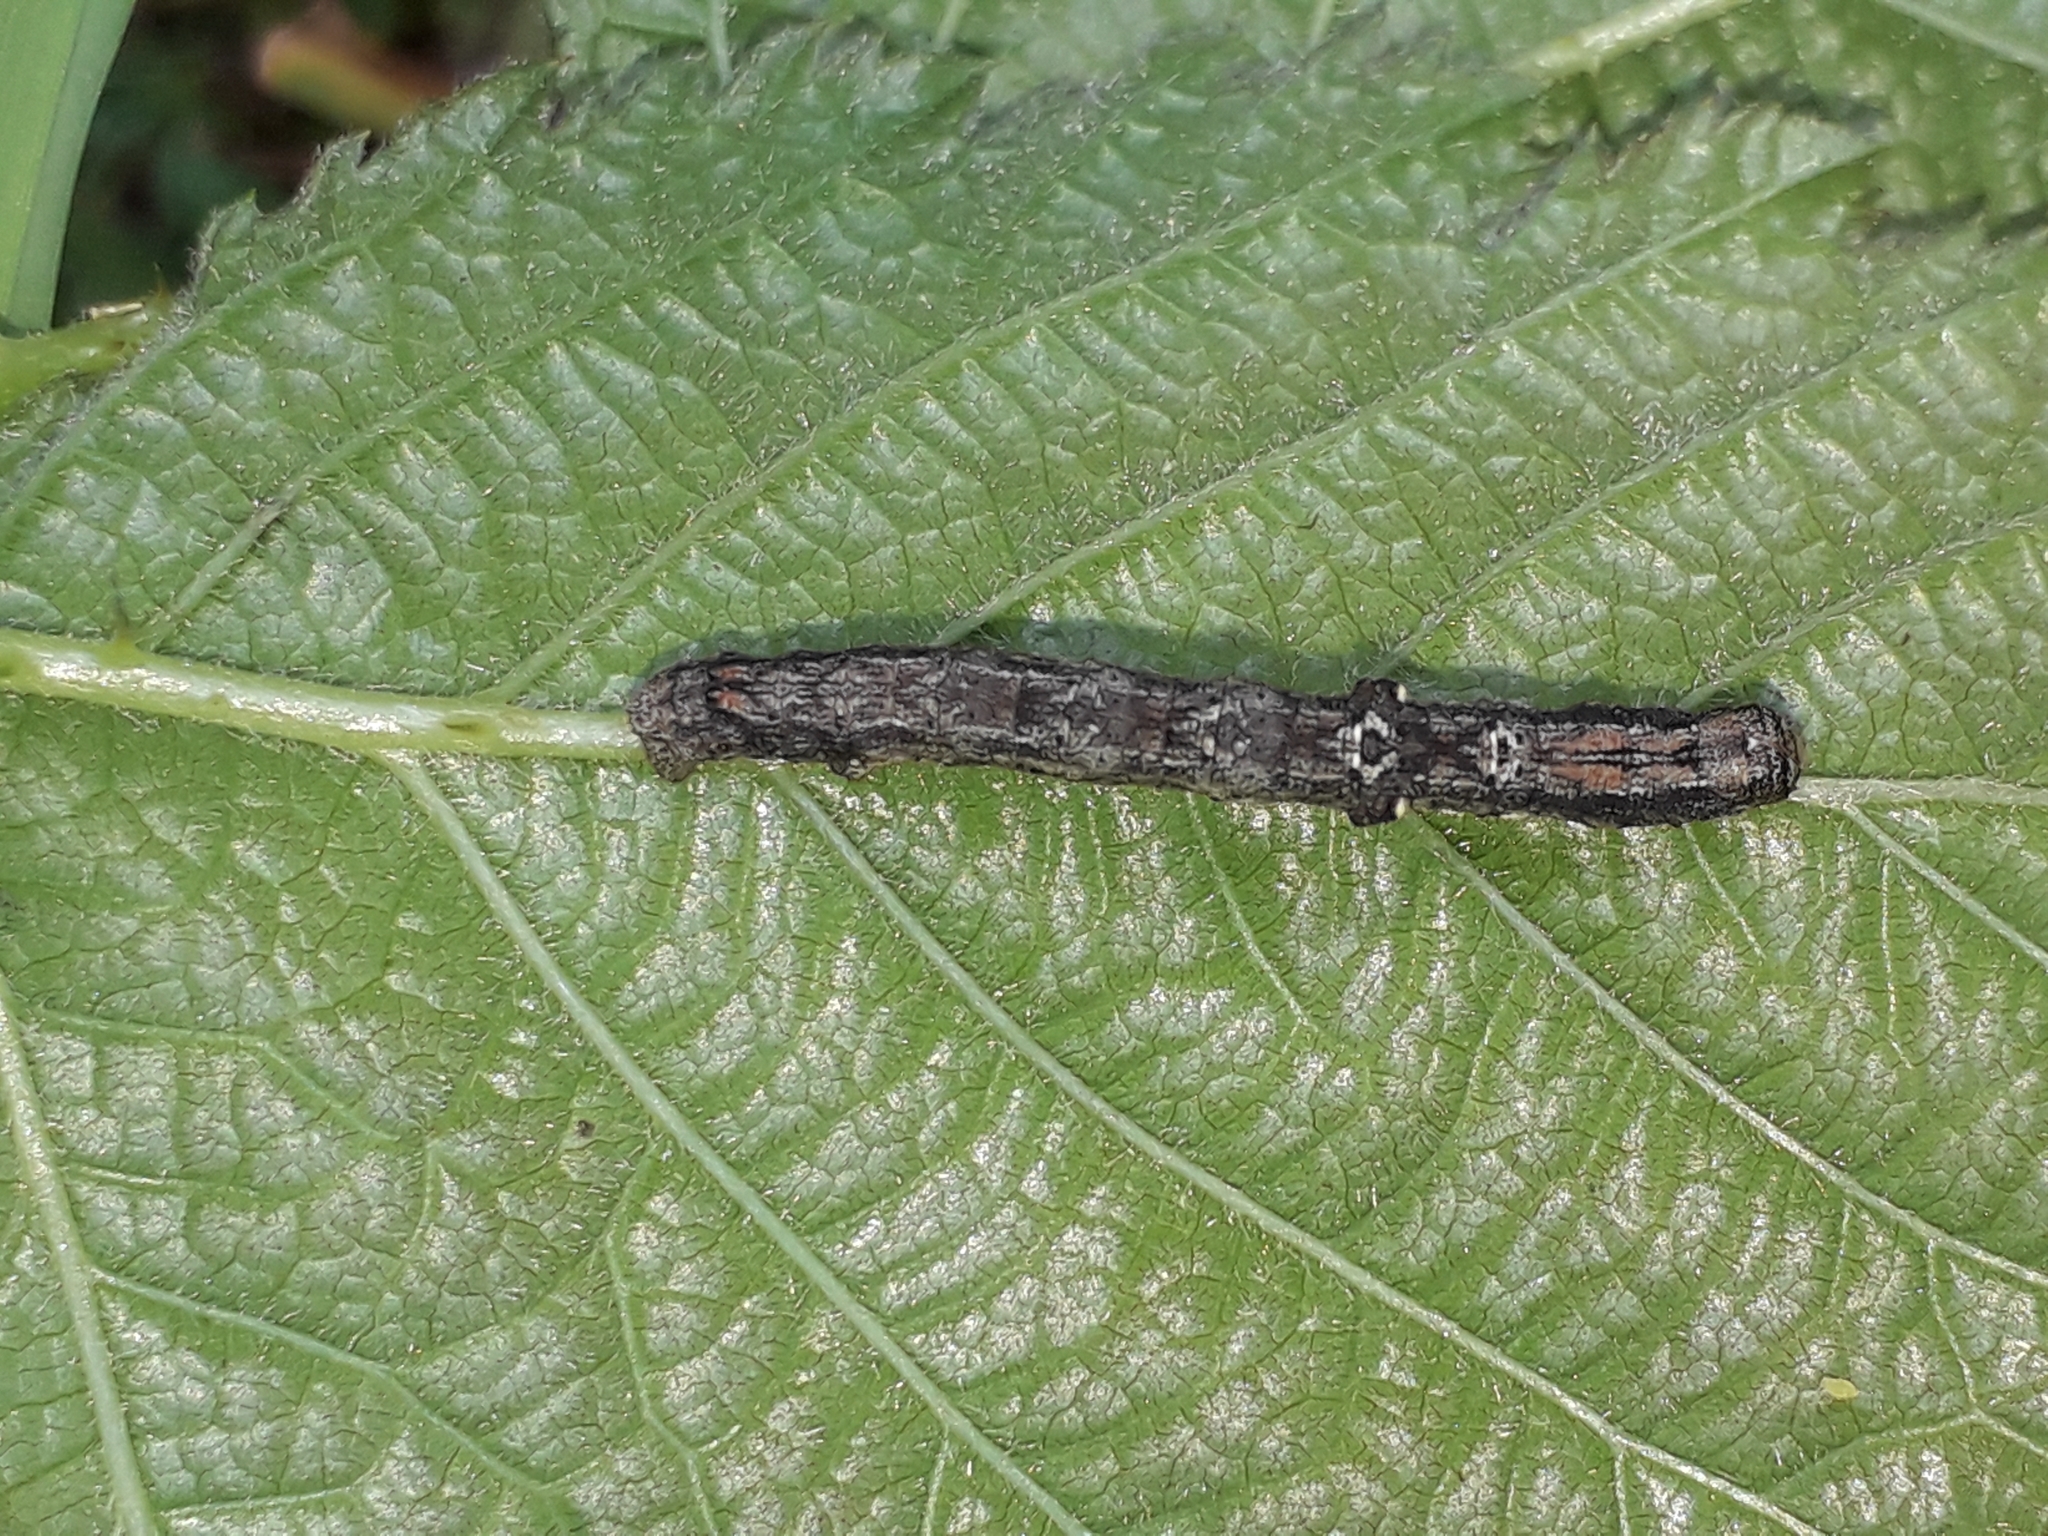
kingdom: Animalia
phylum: Arthropoda
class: Insecta
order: Lepidoptera
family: Geometridae
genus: Agriopis
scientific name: Agriopis bajaria
